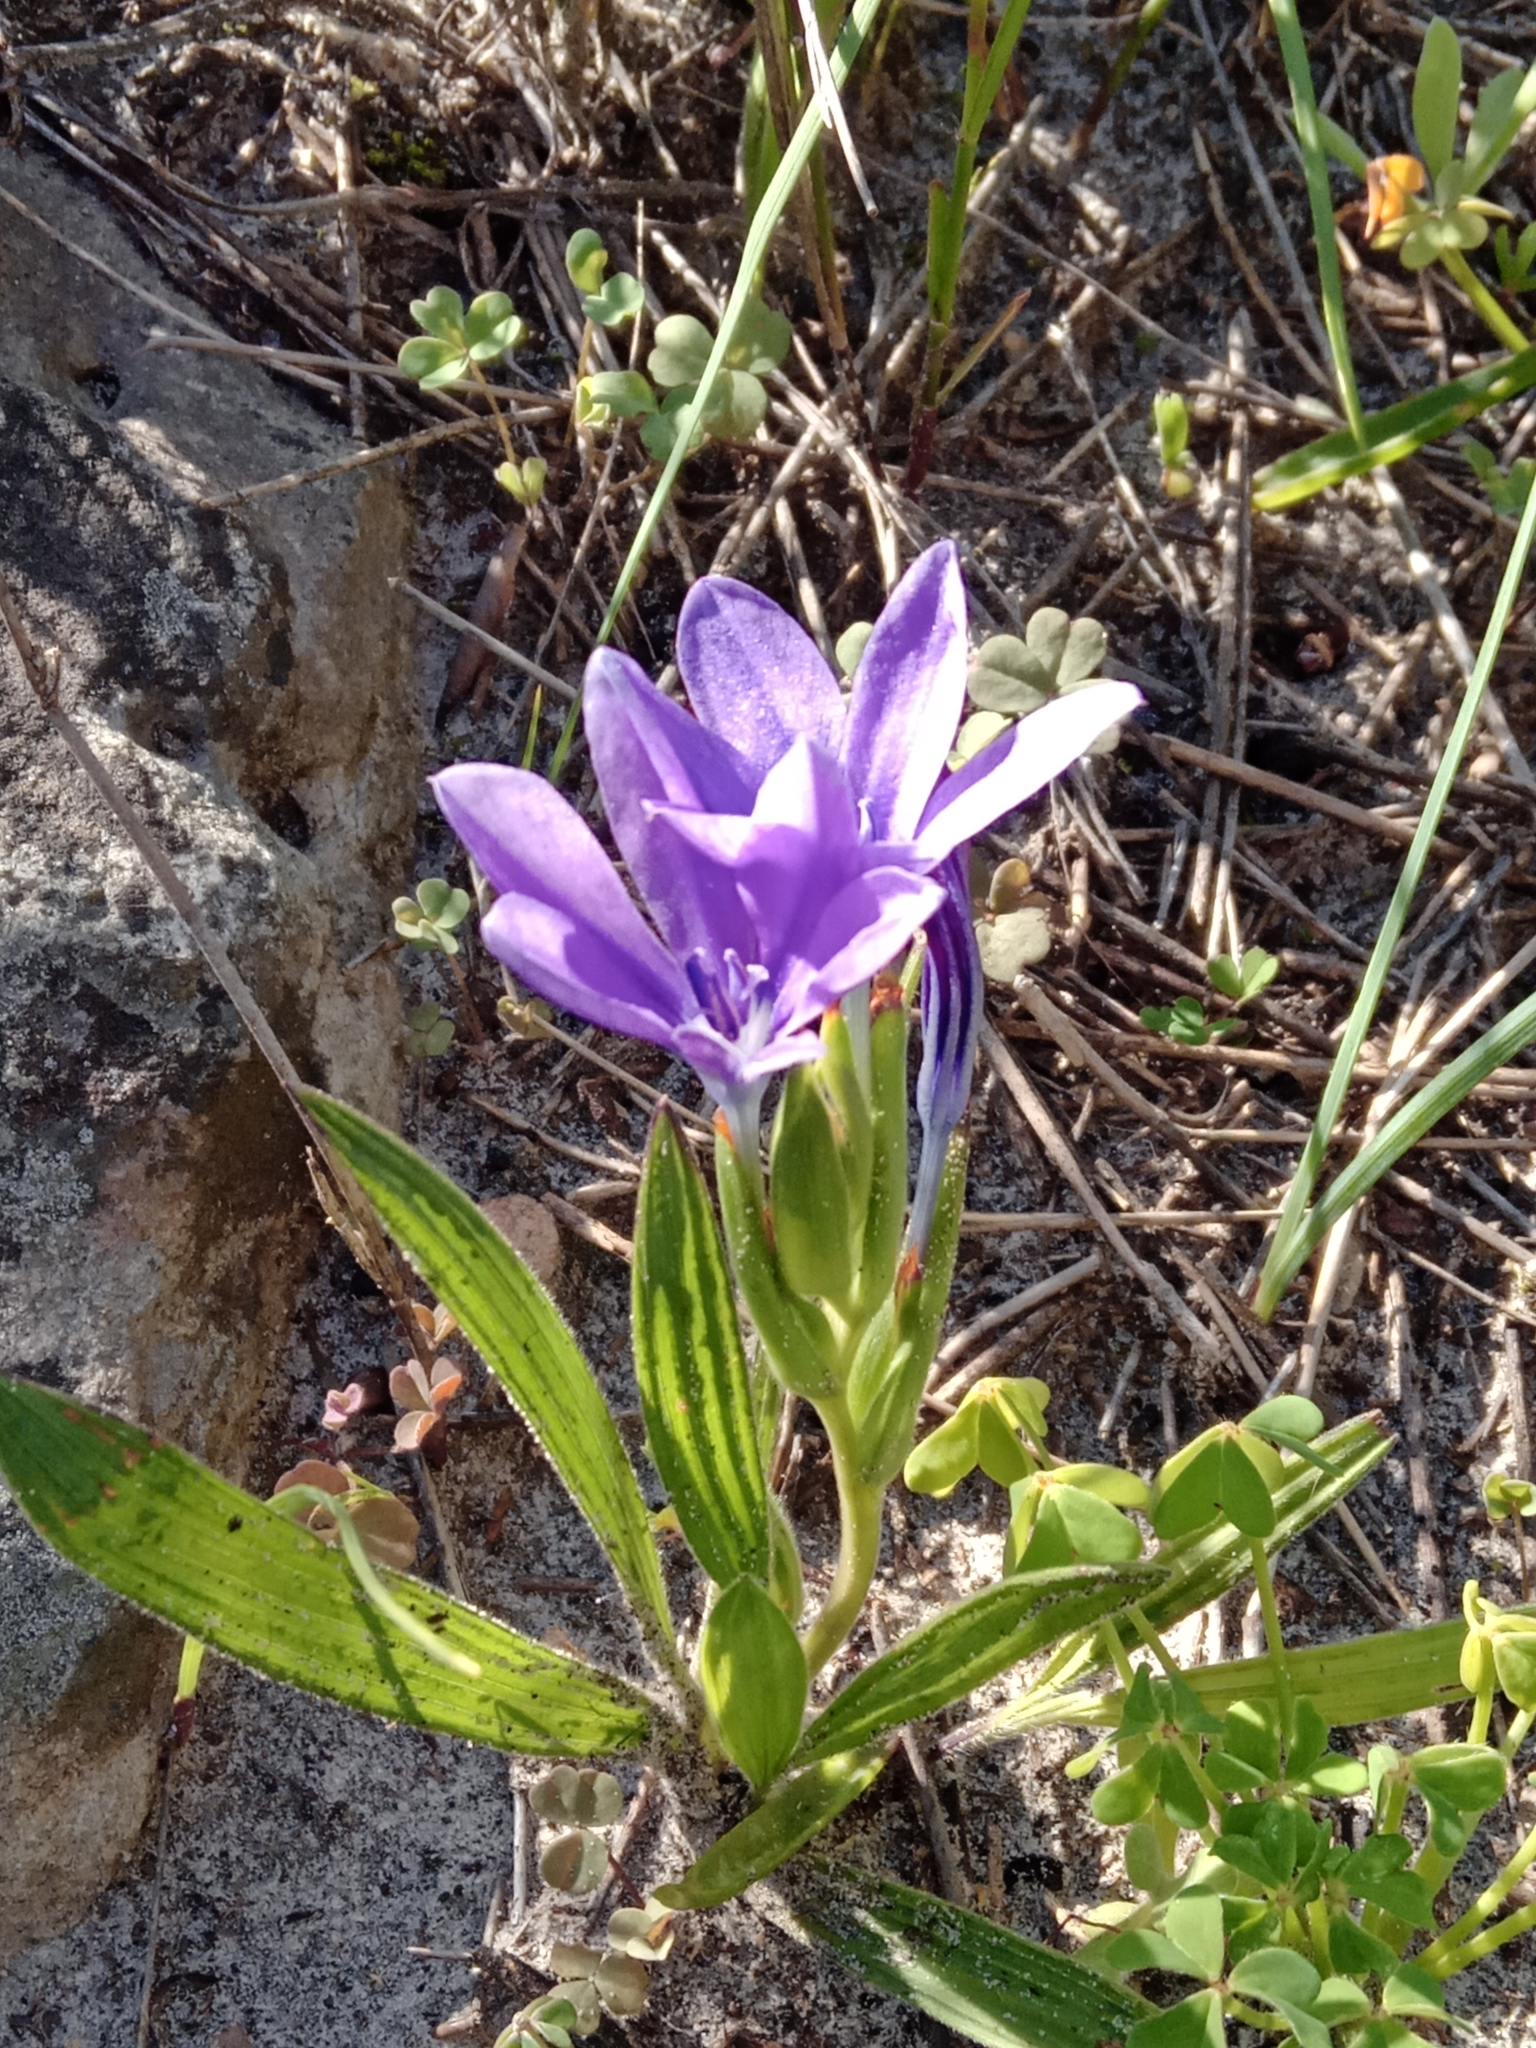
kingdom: Plantae
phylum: Tracheophyta
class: Liliopsida
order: Asparagales
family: Iridaceae
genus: Babiana
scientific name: Babiana villosula
